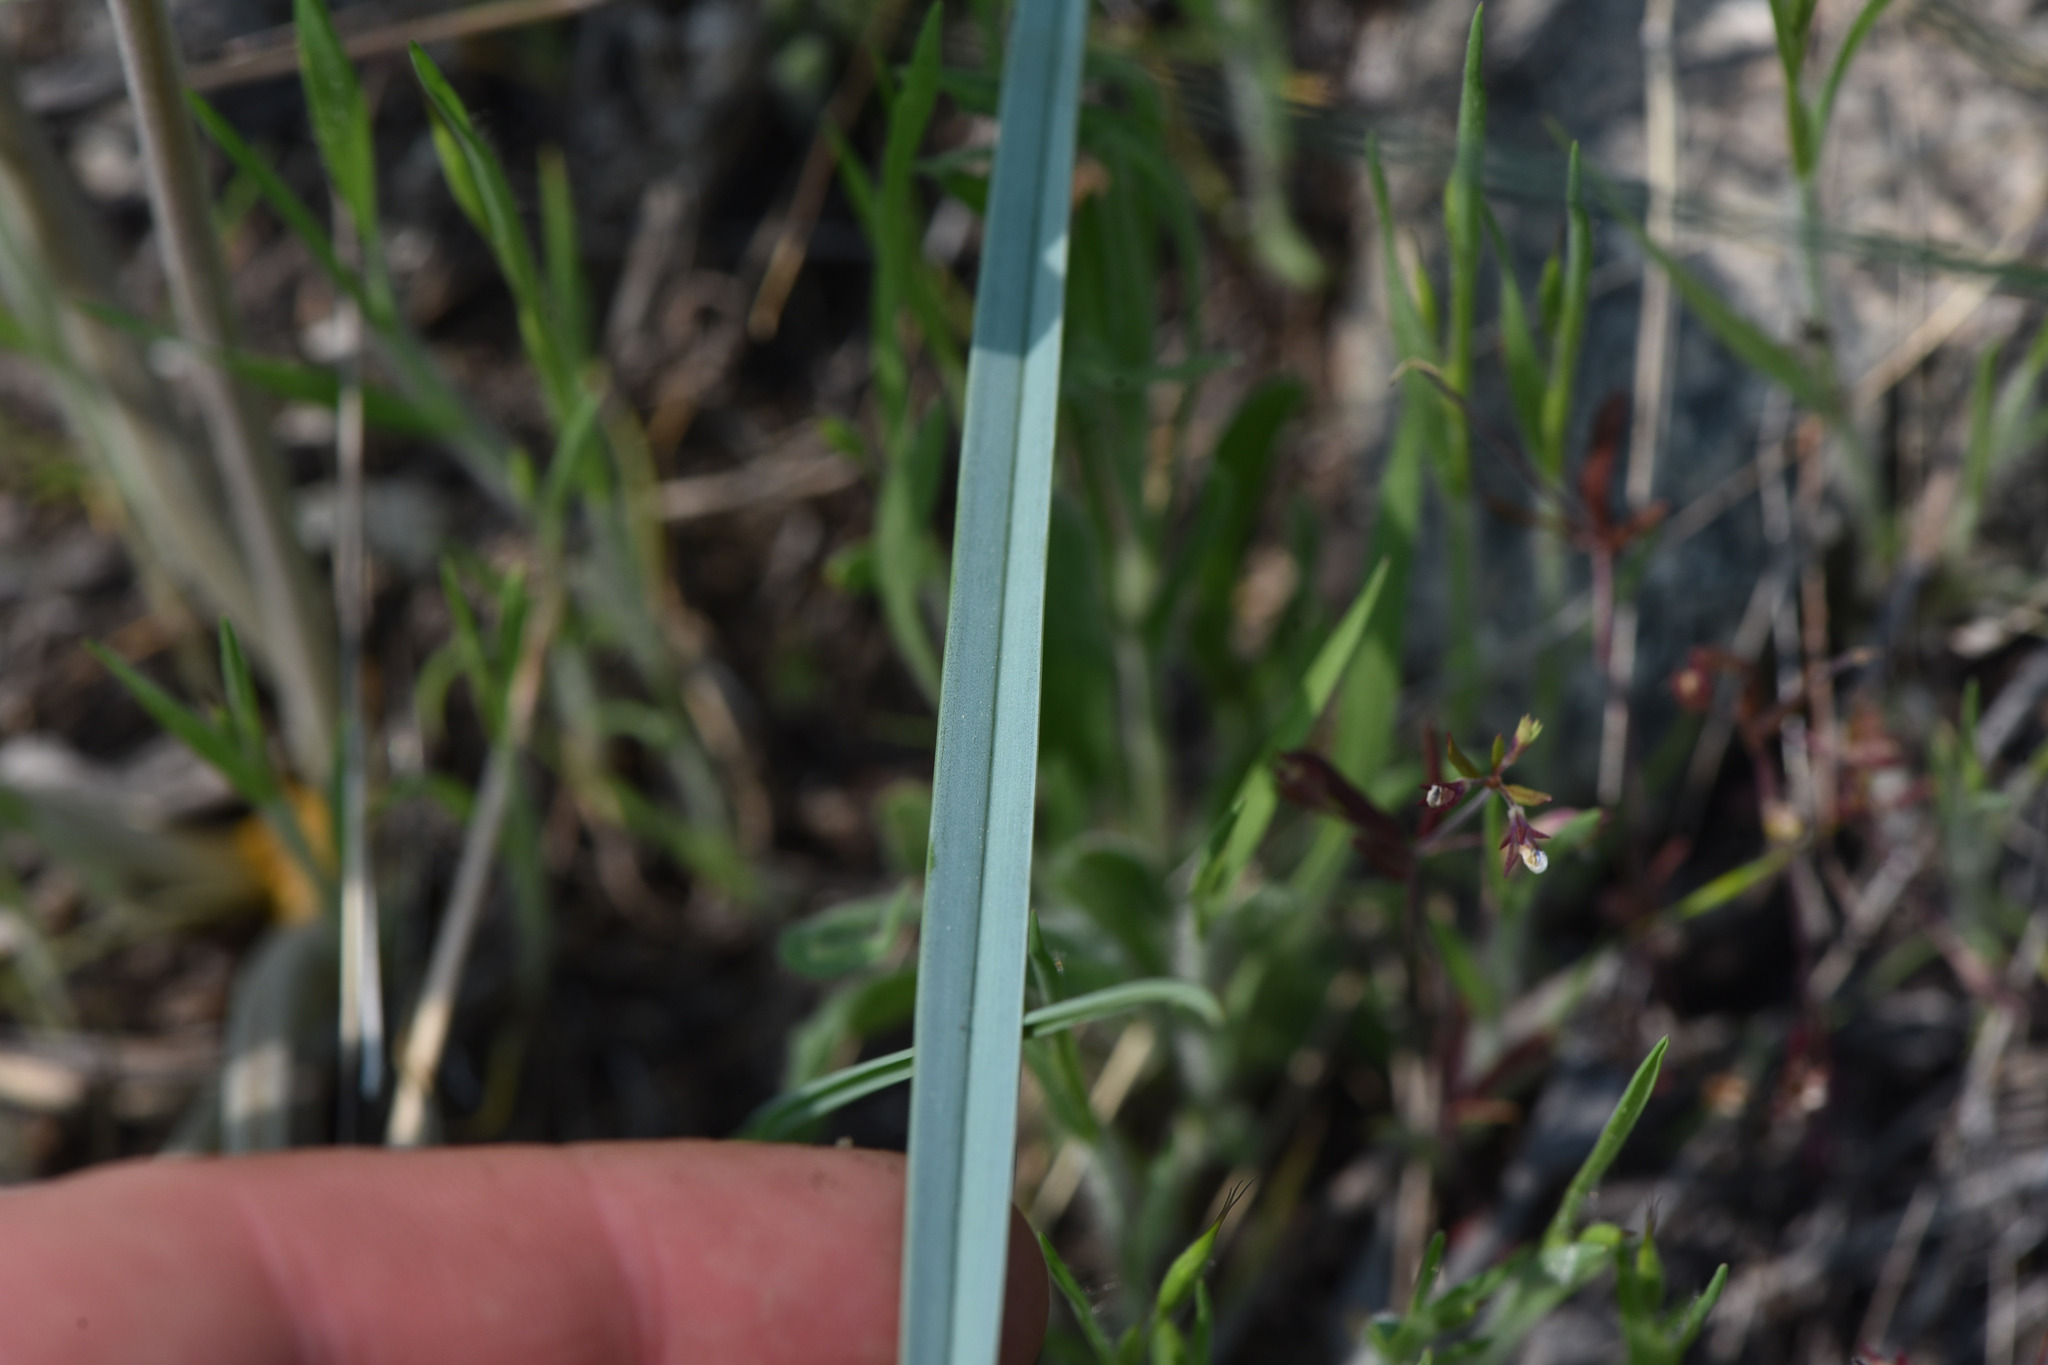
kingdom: Plantae
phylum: Tracheophyta
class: Liliopsida
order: Liliales
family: Liliaceae
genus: Calochortus
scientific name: Calochortus macrocarpus
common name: Green-band mariposa lily
